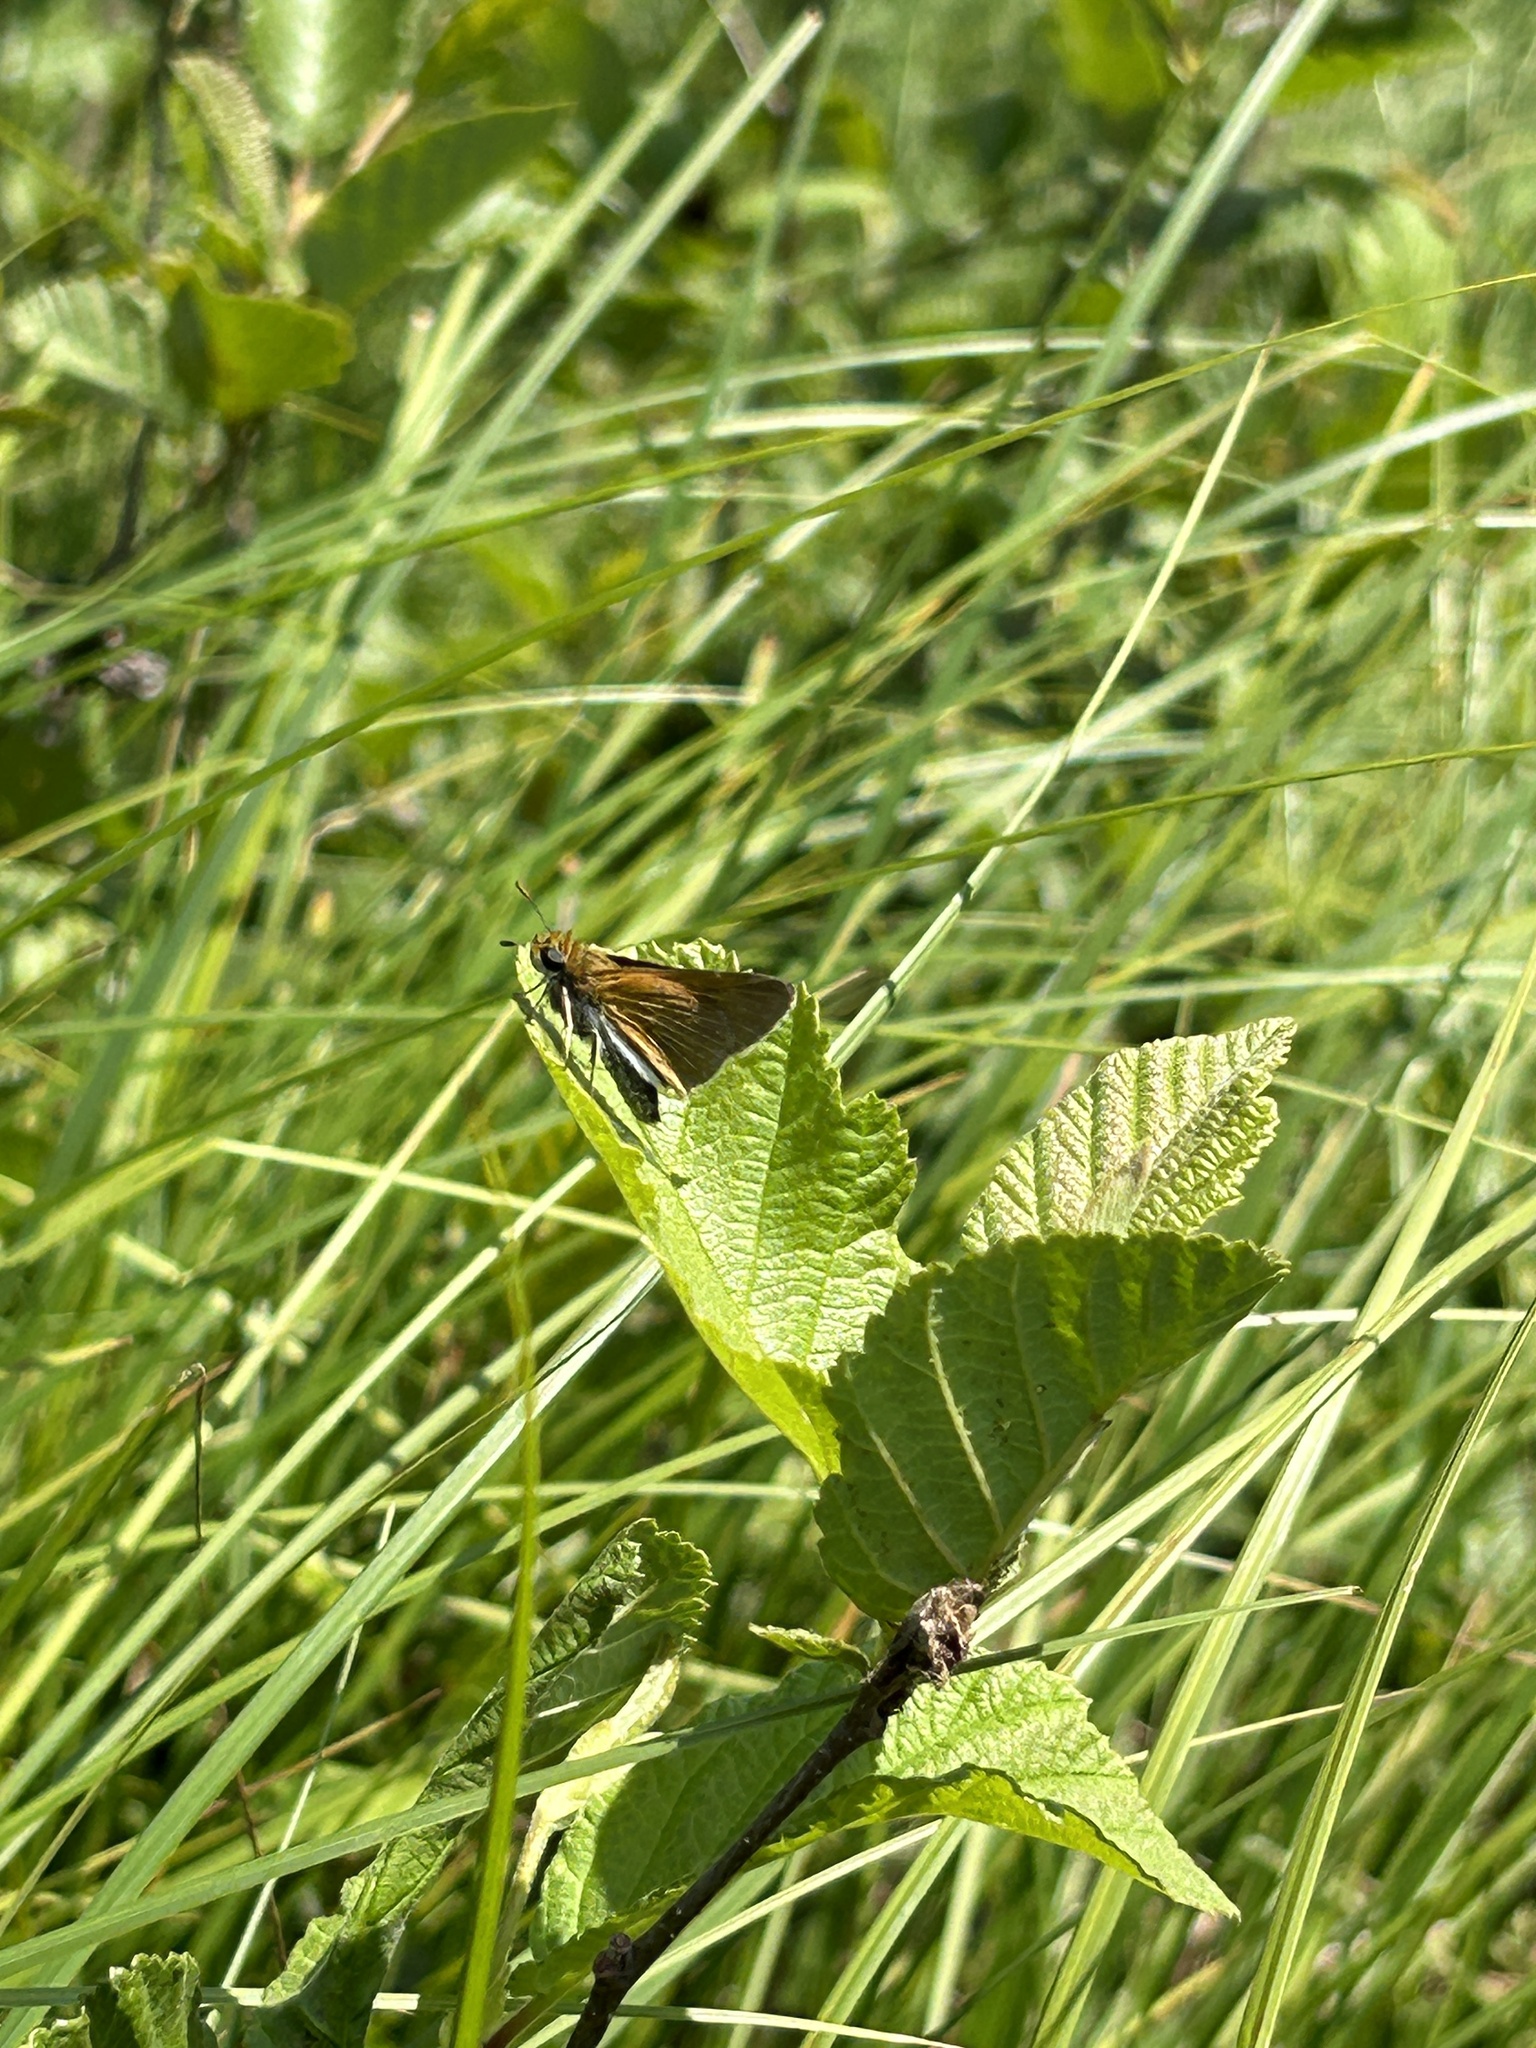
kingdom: Animalia
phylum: Arthropoda
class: Insecta
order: Lepidoptera
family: Hesperiidae
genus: Euphyes
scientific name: Euphyes bimacula
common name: Two-spotted skipper
